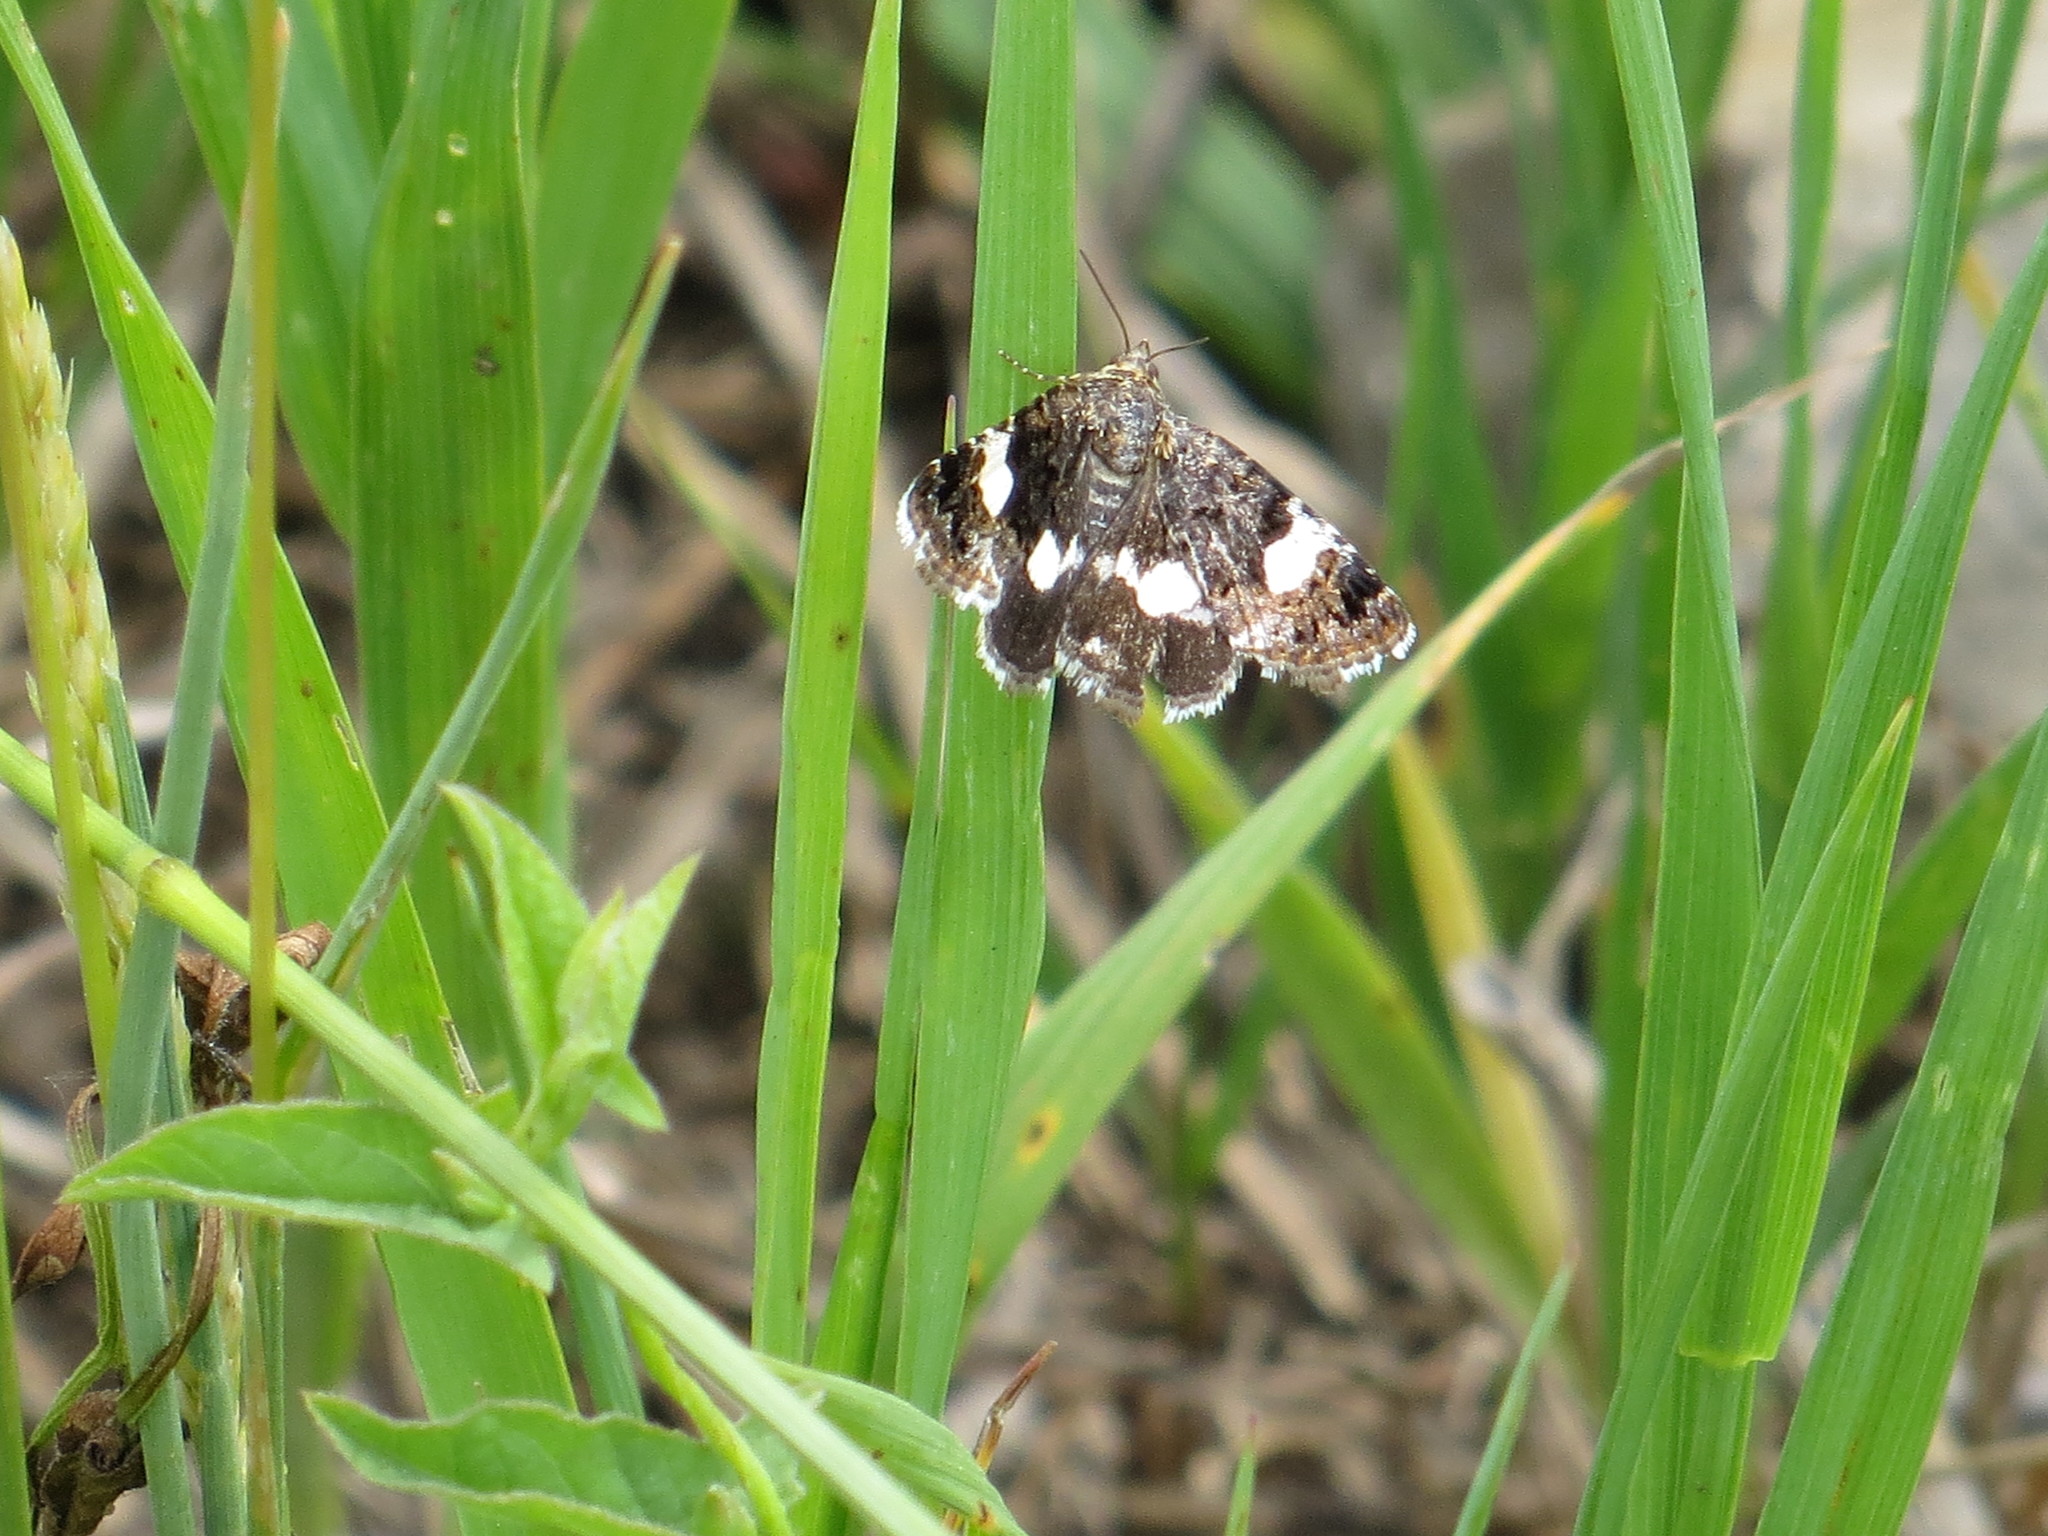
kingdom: Animalia
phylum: Arthropoda
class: Insecta
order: Lepidoptera
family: Erebidae
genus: Tyta
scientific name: Tyta luctuosa
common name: Four-spotted
